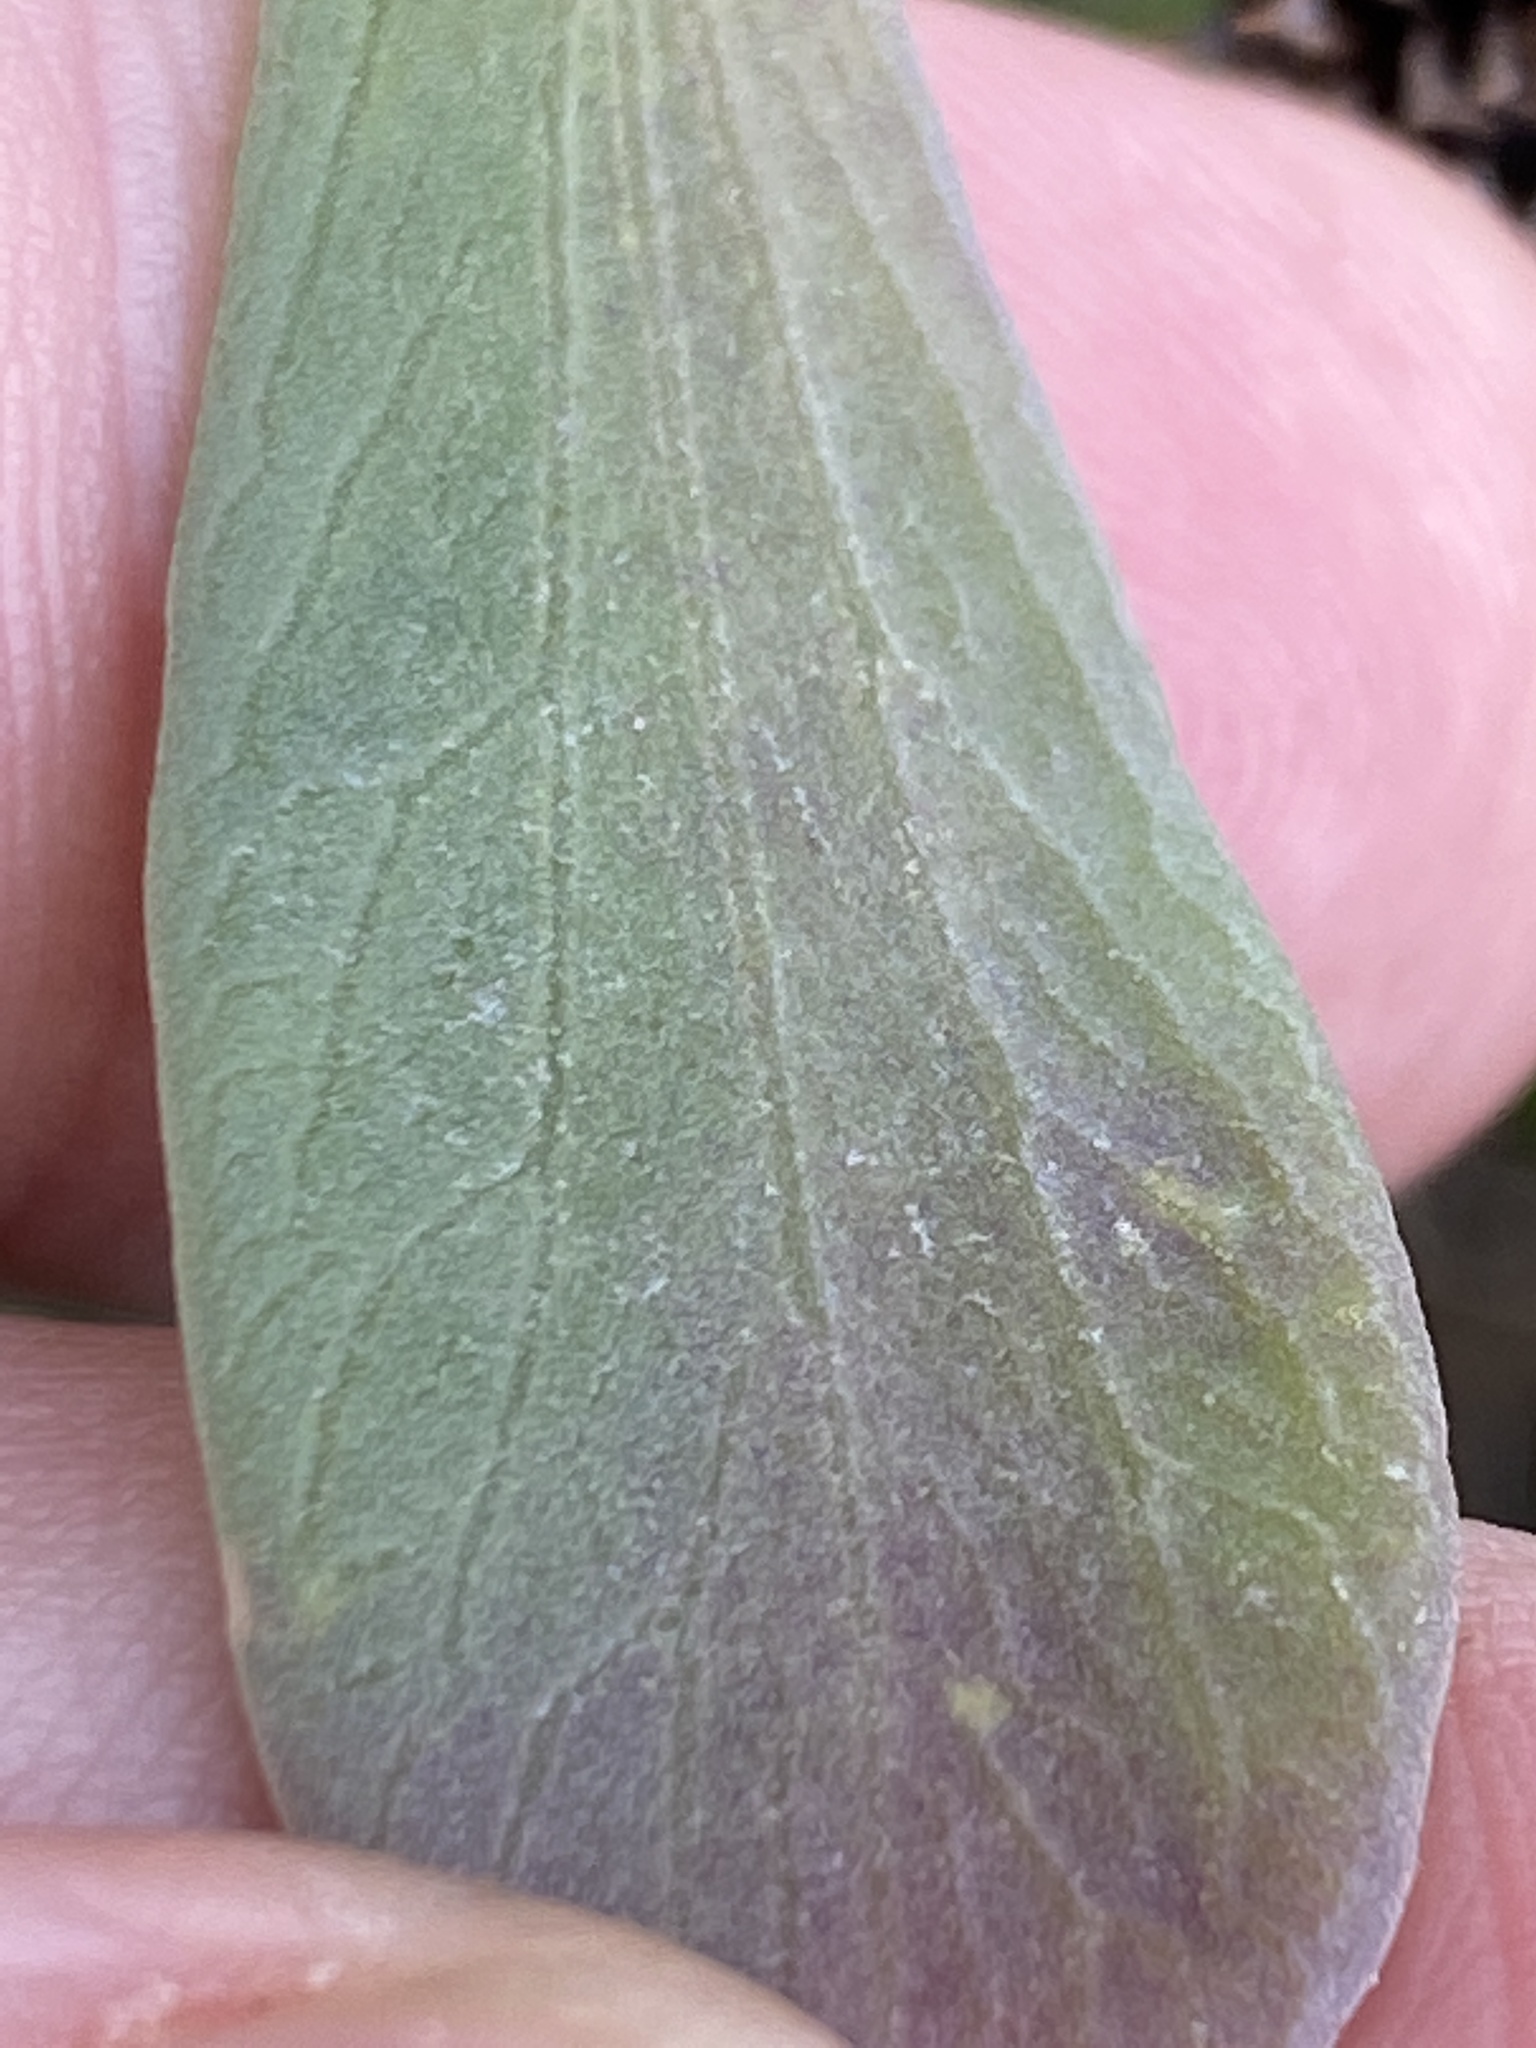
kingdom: Plantae
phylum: Tracheophyta
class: Magnoliopsida
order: Asterales
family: Asteraceae
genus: Borrichia
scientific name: Borrichia frutescens
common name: Sea oxeye
